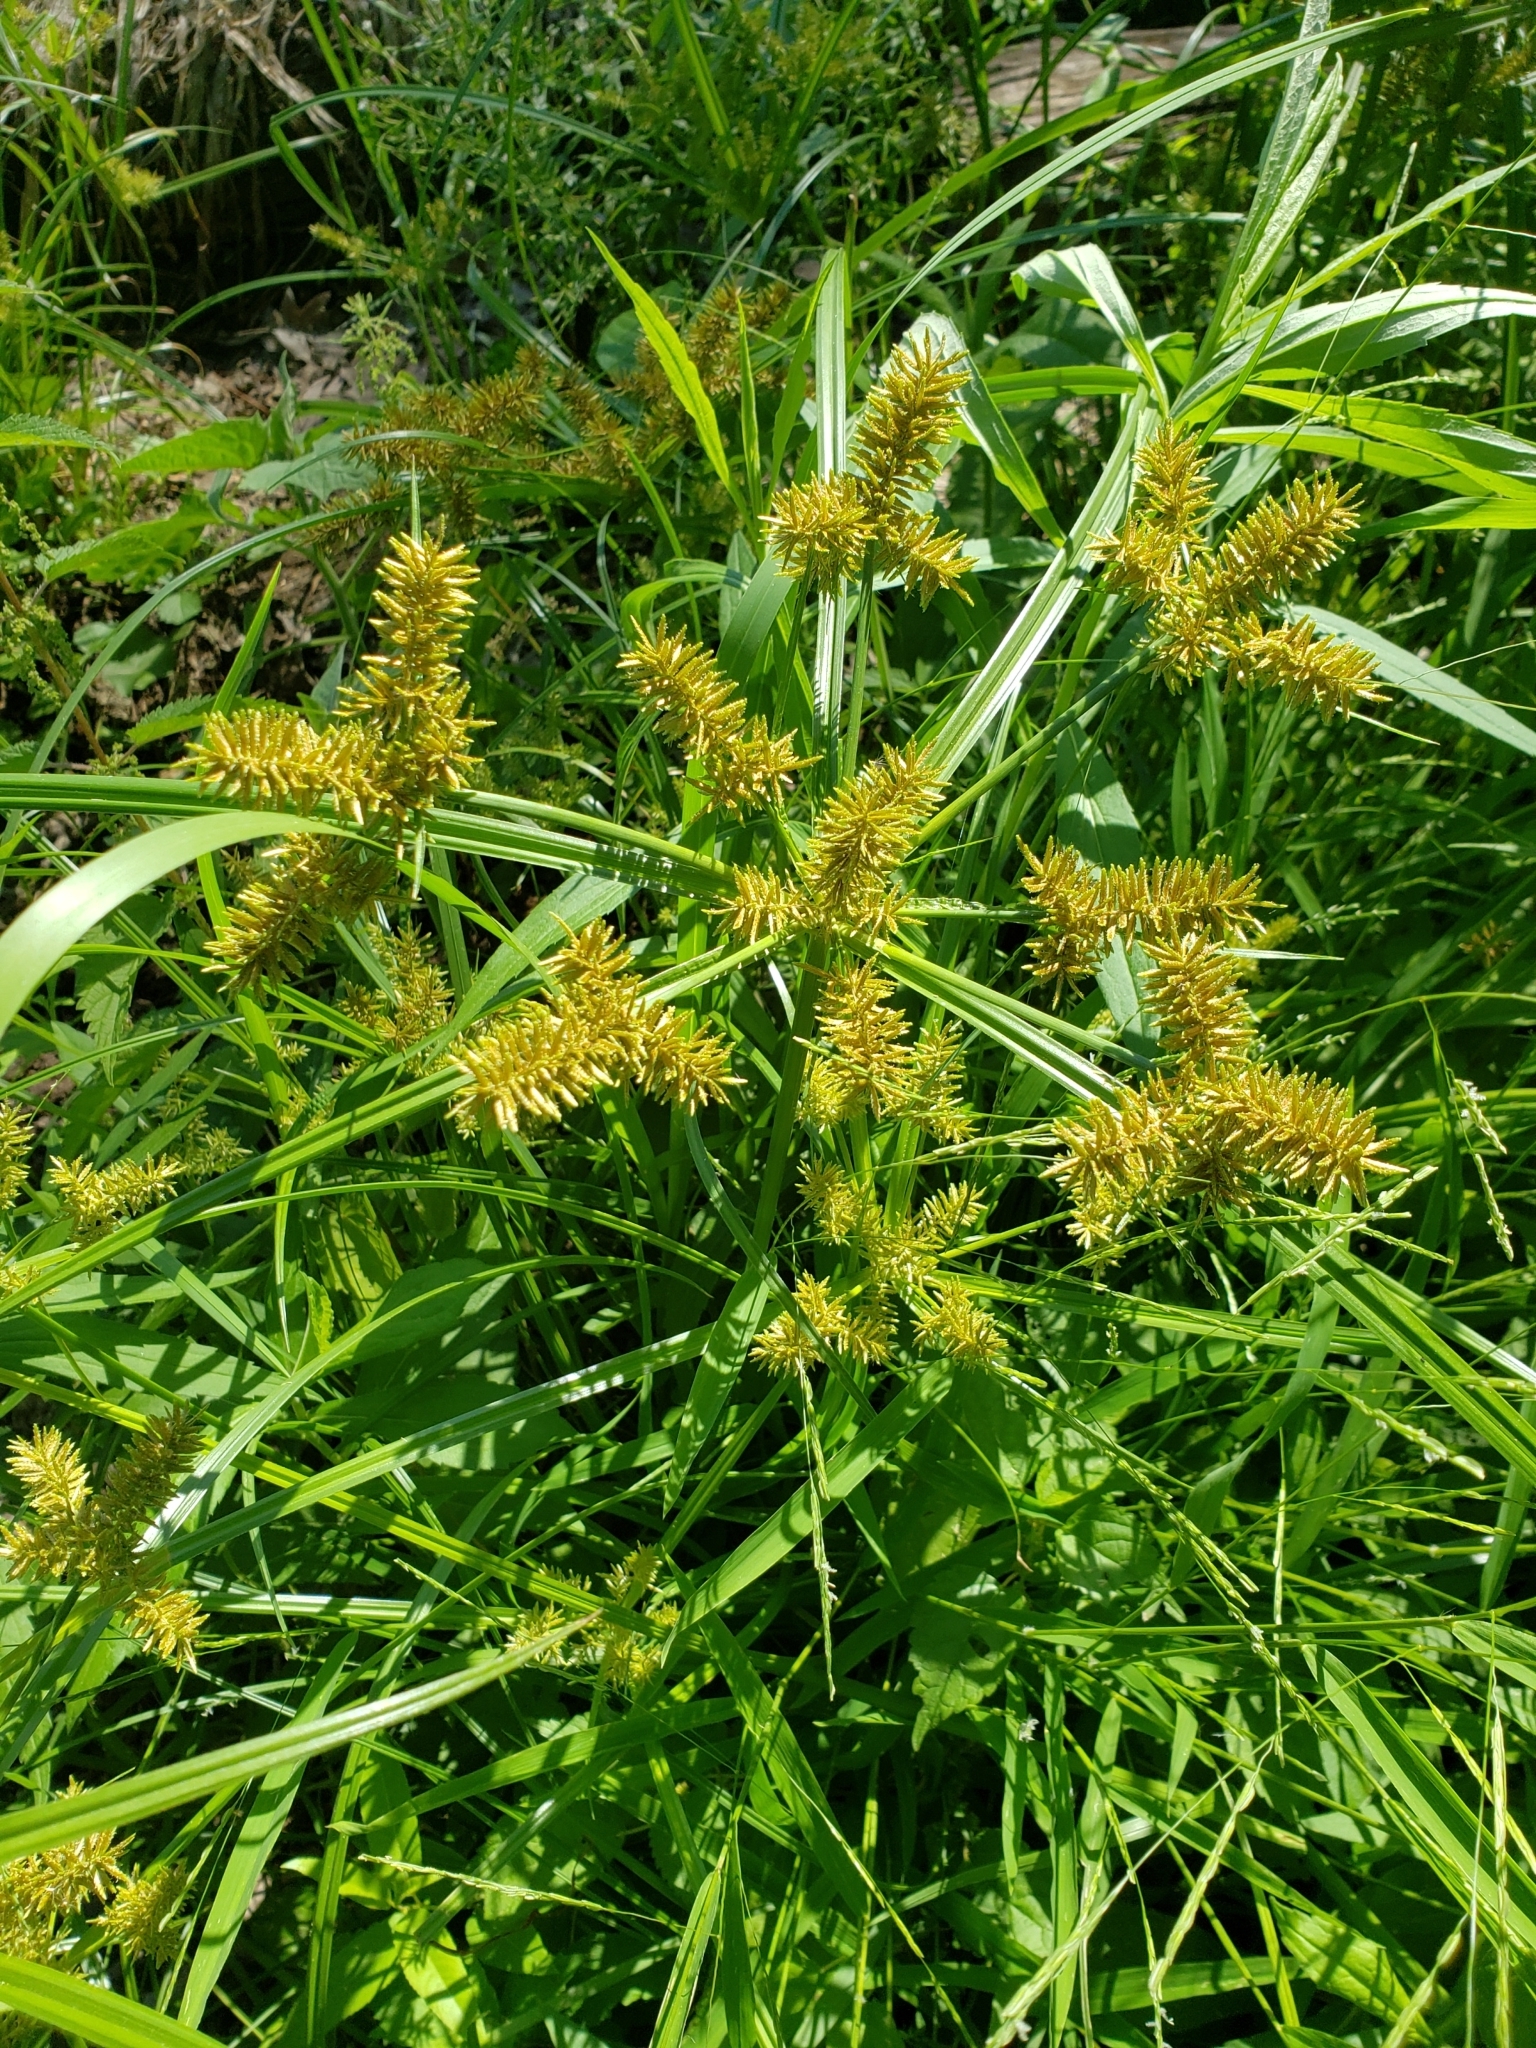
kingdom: Plantae
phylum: Tracheophyta
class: Liliopsida
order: Poales
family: Cyperaceae
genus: Cyperus
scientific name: Cyperus erythrorhizos
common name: Red-root flat sedge
